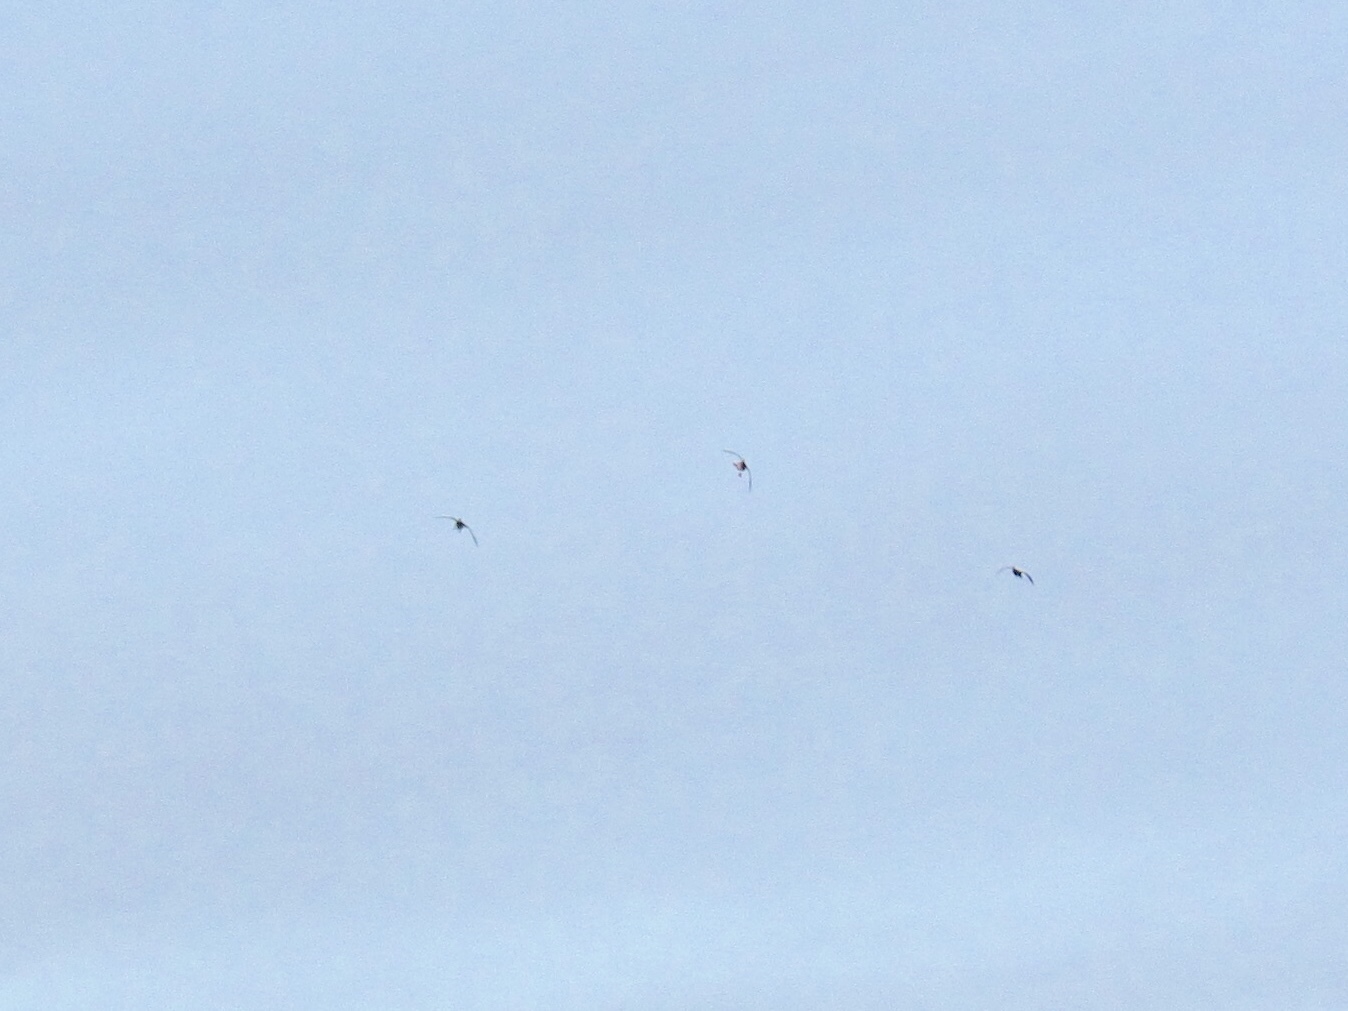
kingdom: Animalia
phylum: Chordata
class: Aves
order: Anseriformes
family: Anatidae
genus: Anas
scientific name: Anas platyrhynchos
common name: Mallard
